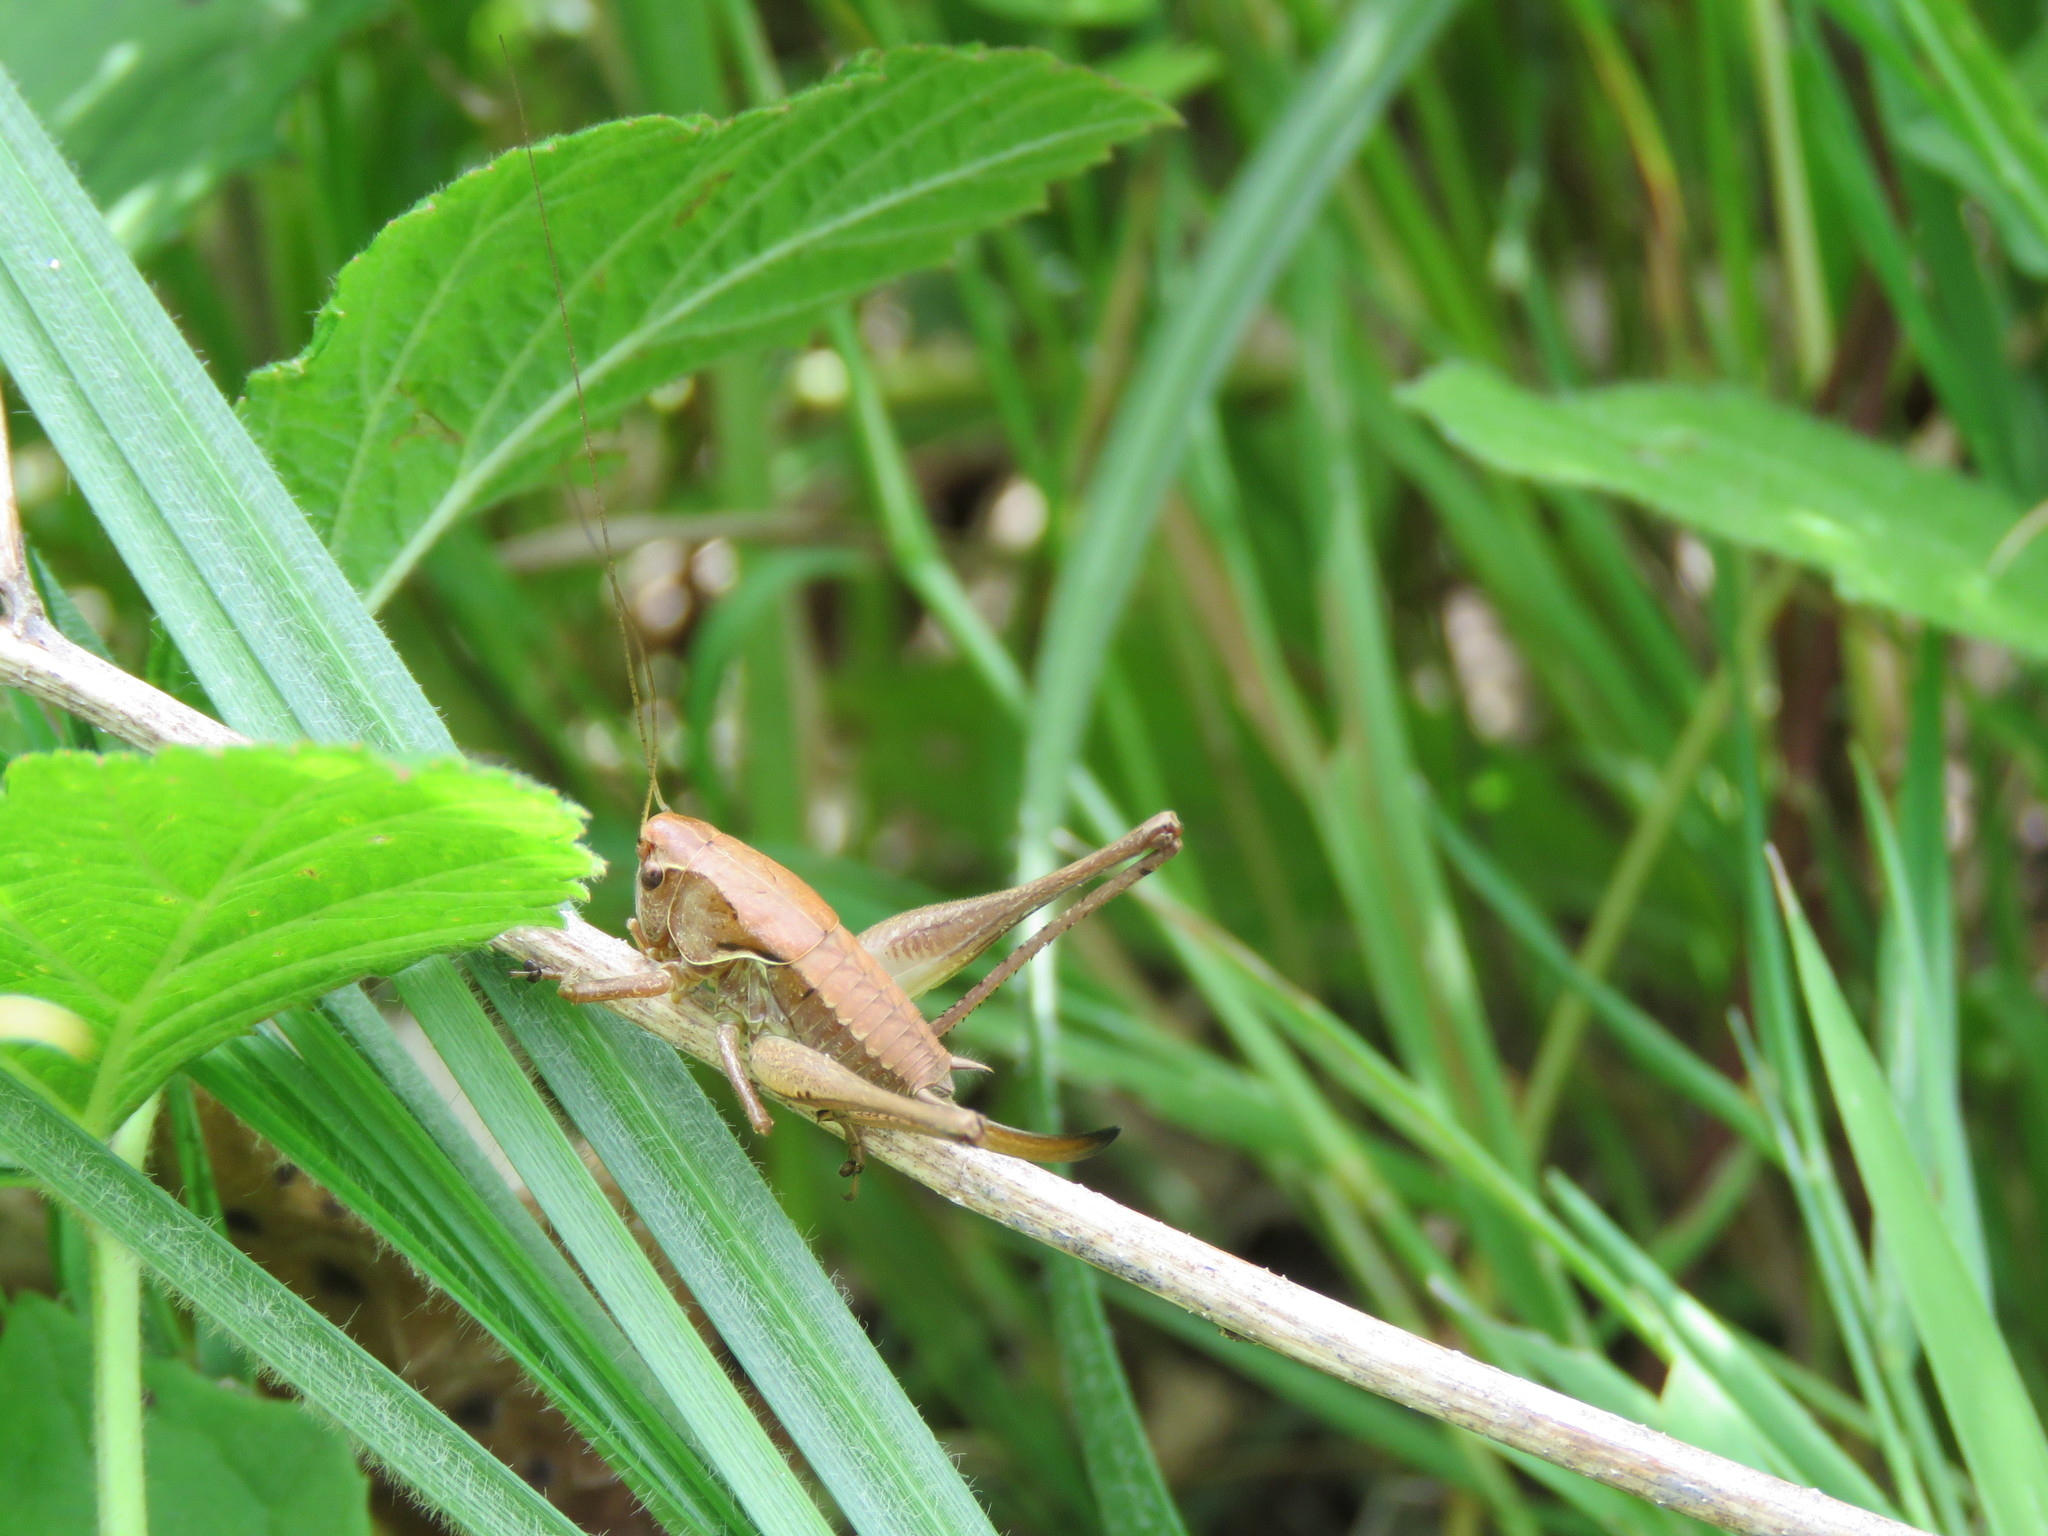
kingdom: Animalia
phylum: Arthropoda
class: Insecta
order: Orthoptera
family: Tettigoniidae
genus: Pholidoptera
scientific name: Pholidoptera griseoaptera
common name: Dark bush-cricket
